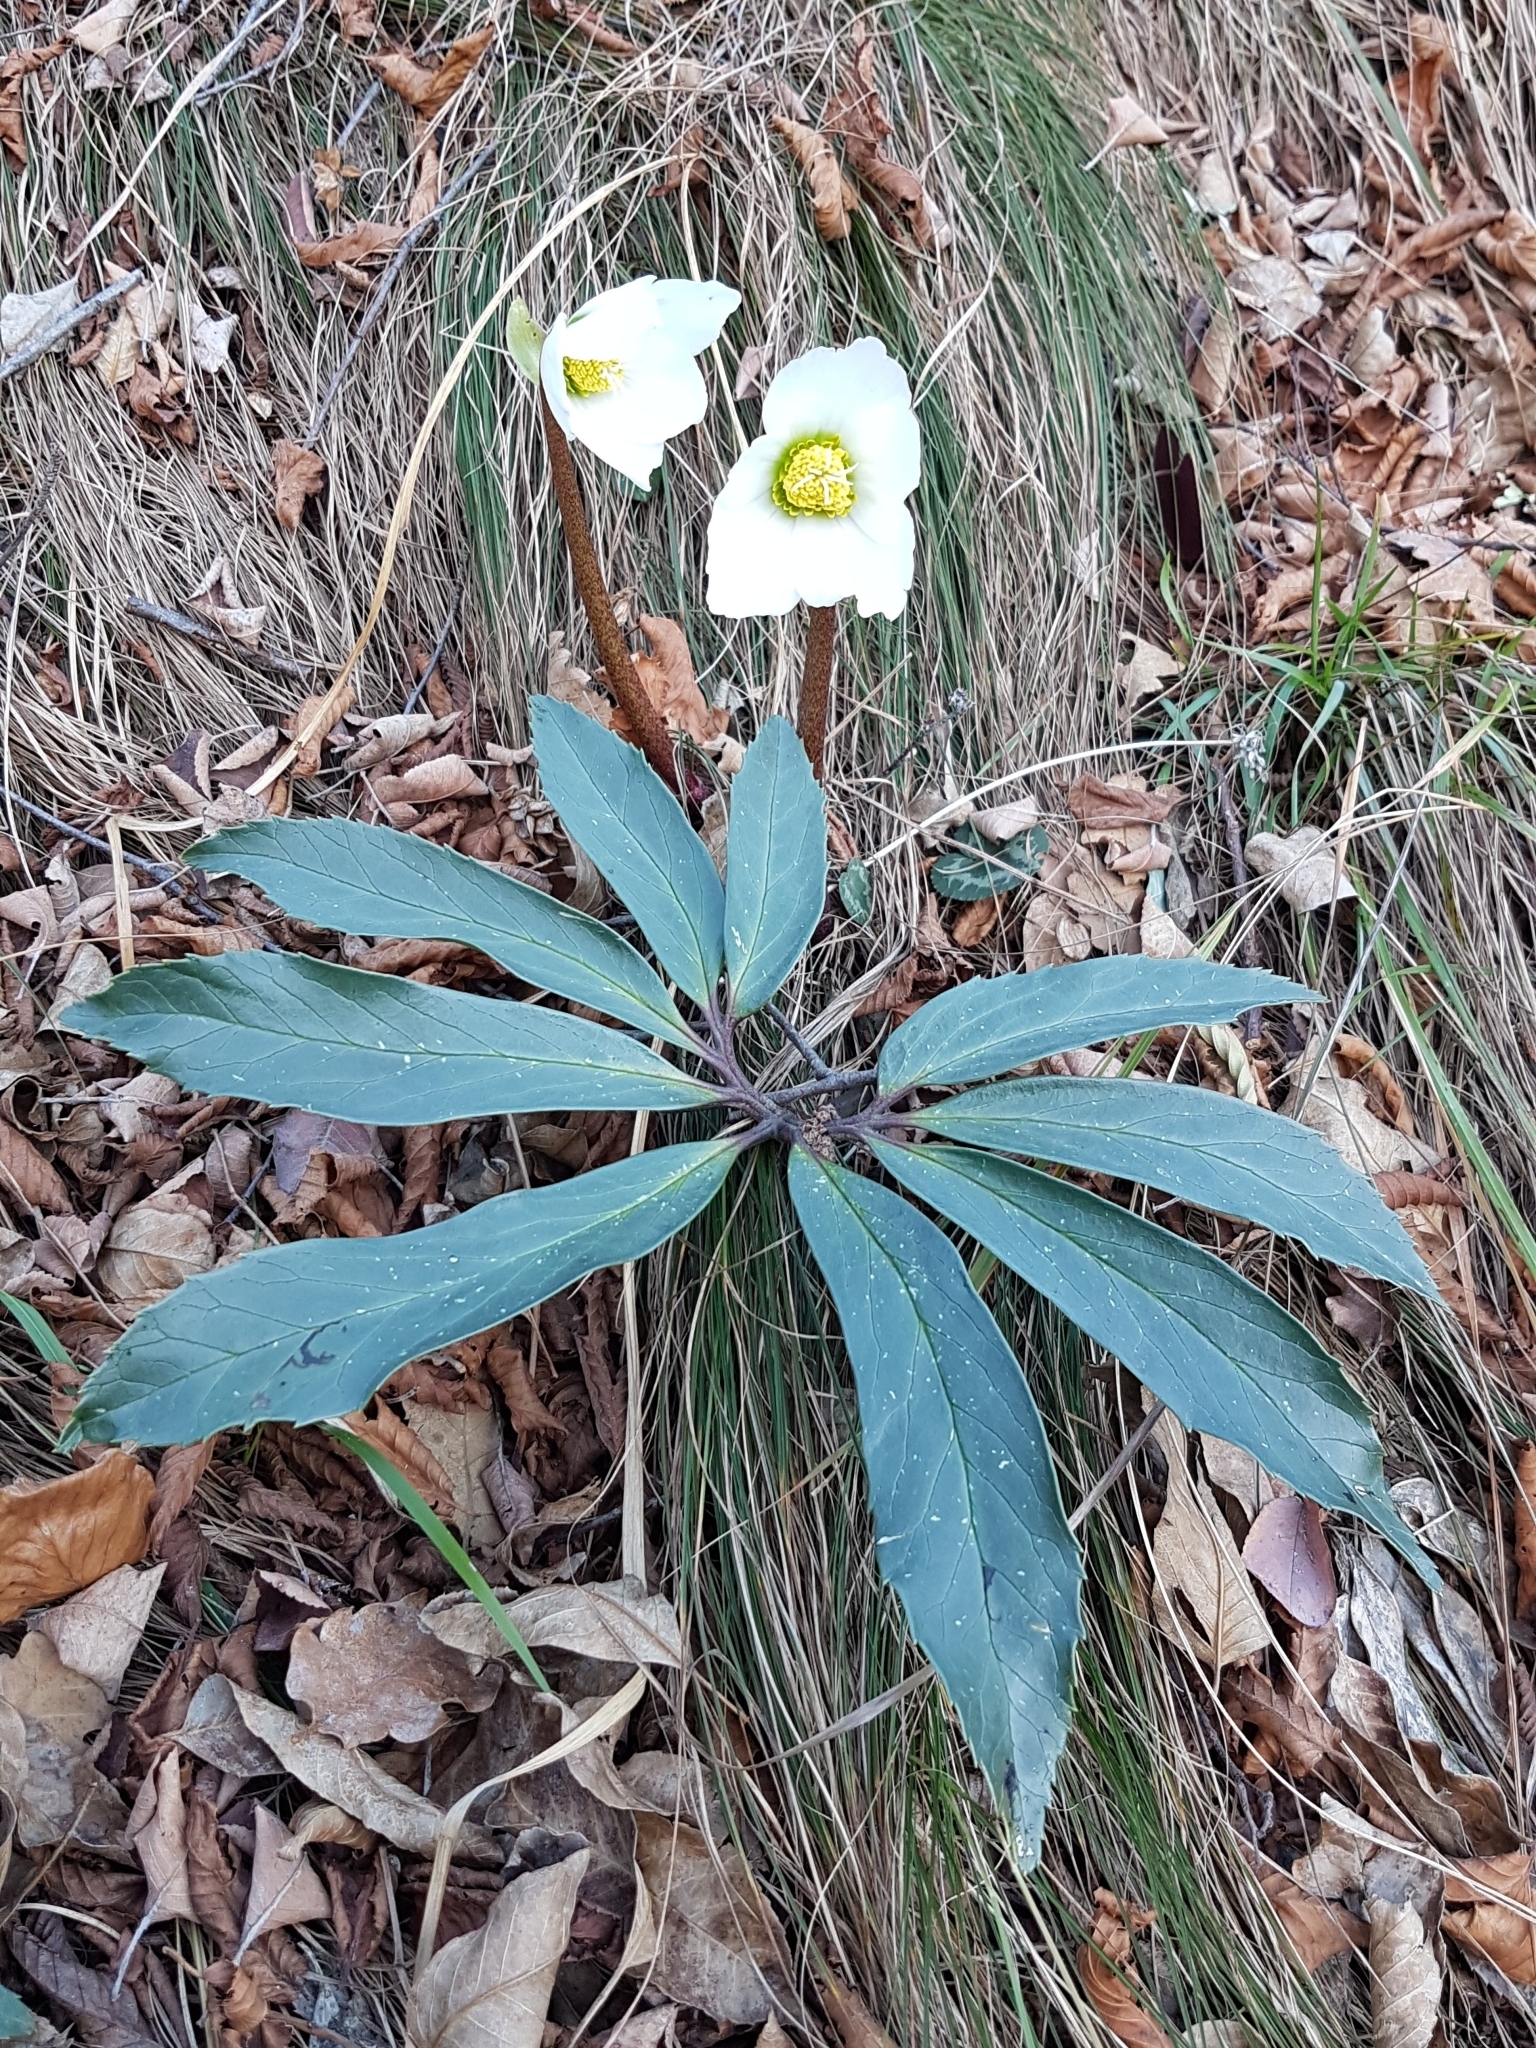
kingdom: Plantae
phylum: Tracheophyta
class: Magnoliopsida
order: Ranunculales
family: Ranunculaceae
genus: Helleborus
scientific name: Helleborus niger
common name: Black hellebore
